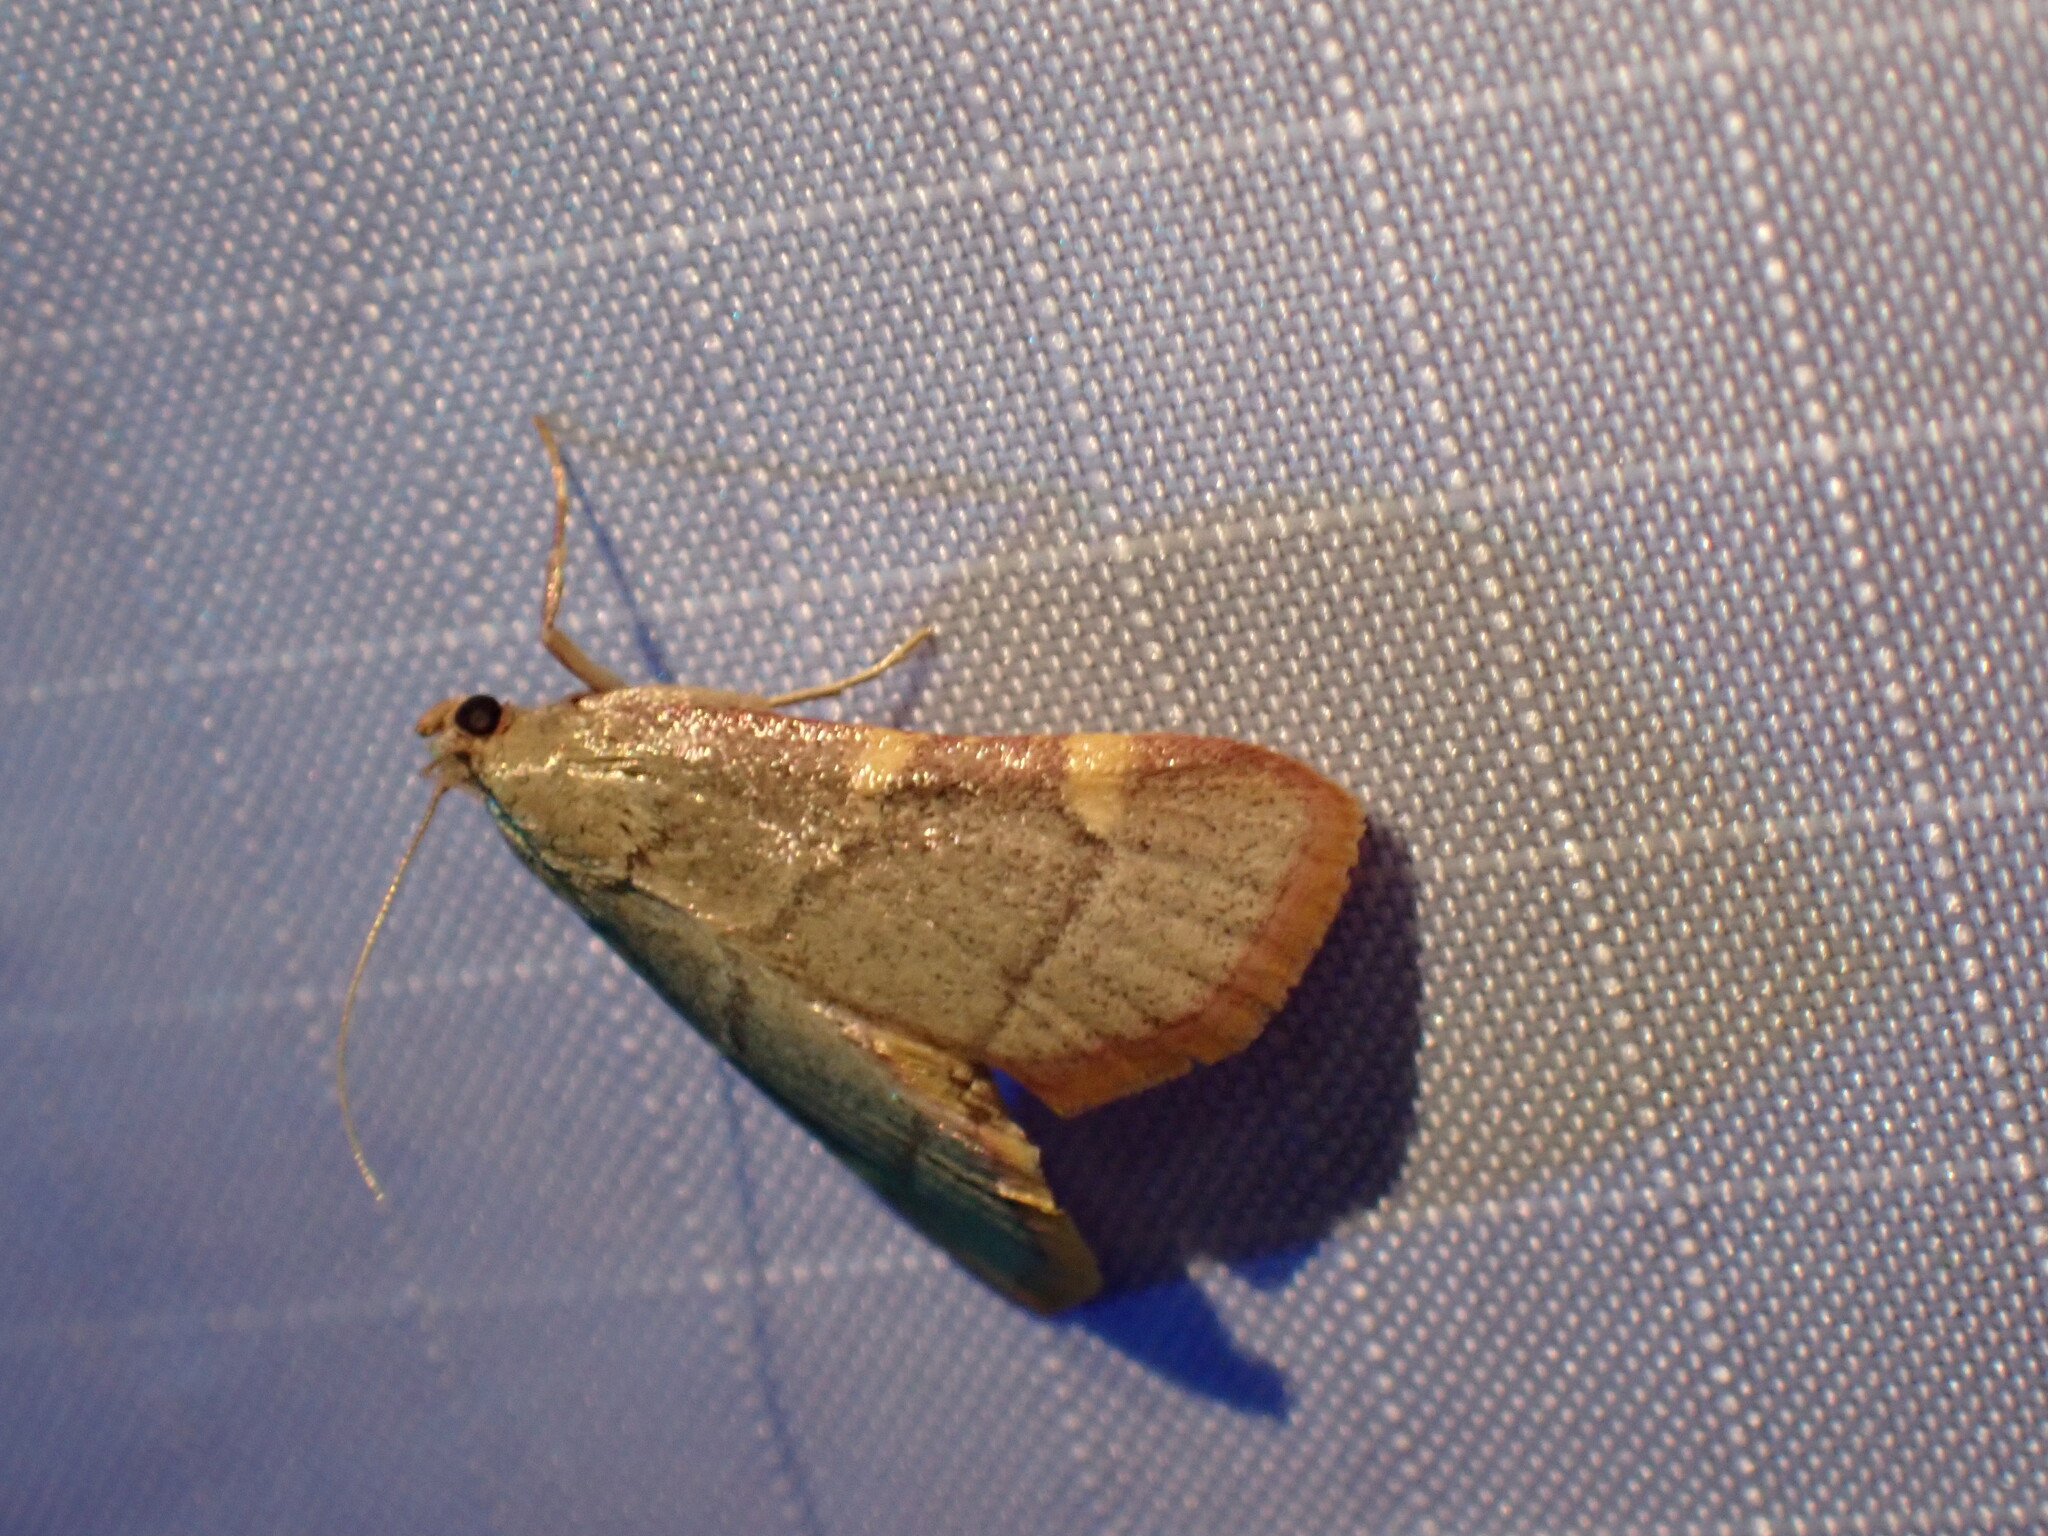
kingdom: Animalia
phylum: Arthropoda
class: Insecta
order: Lepidoptera
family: Pyralidae
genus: Hypsopygia
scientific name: Hypsopygia binodulalis
